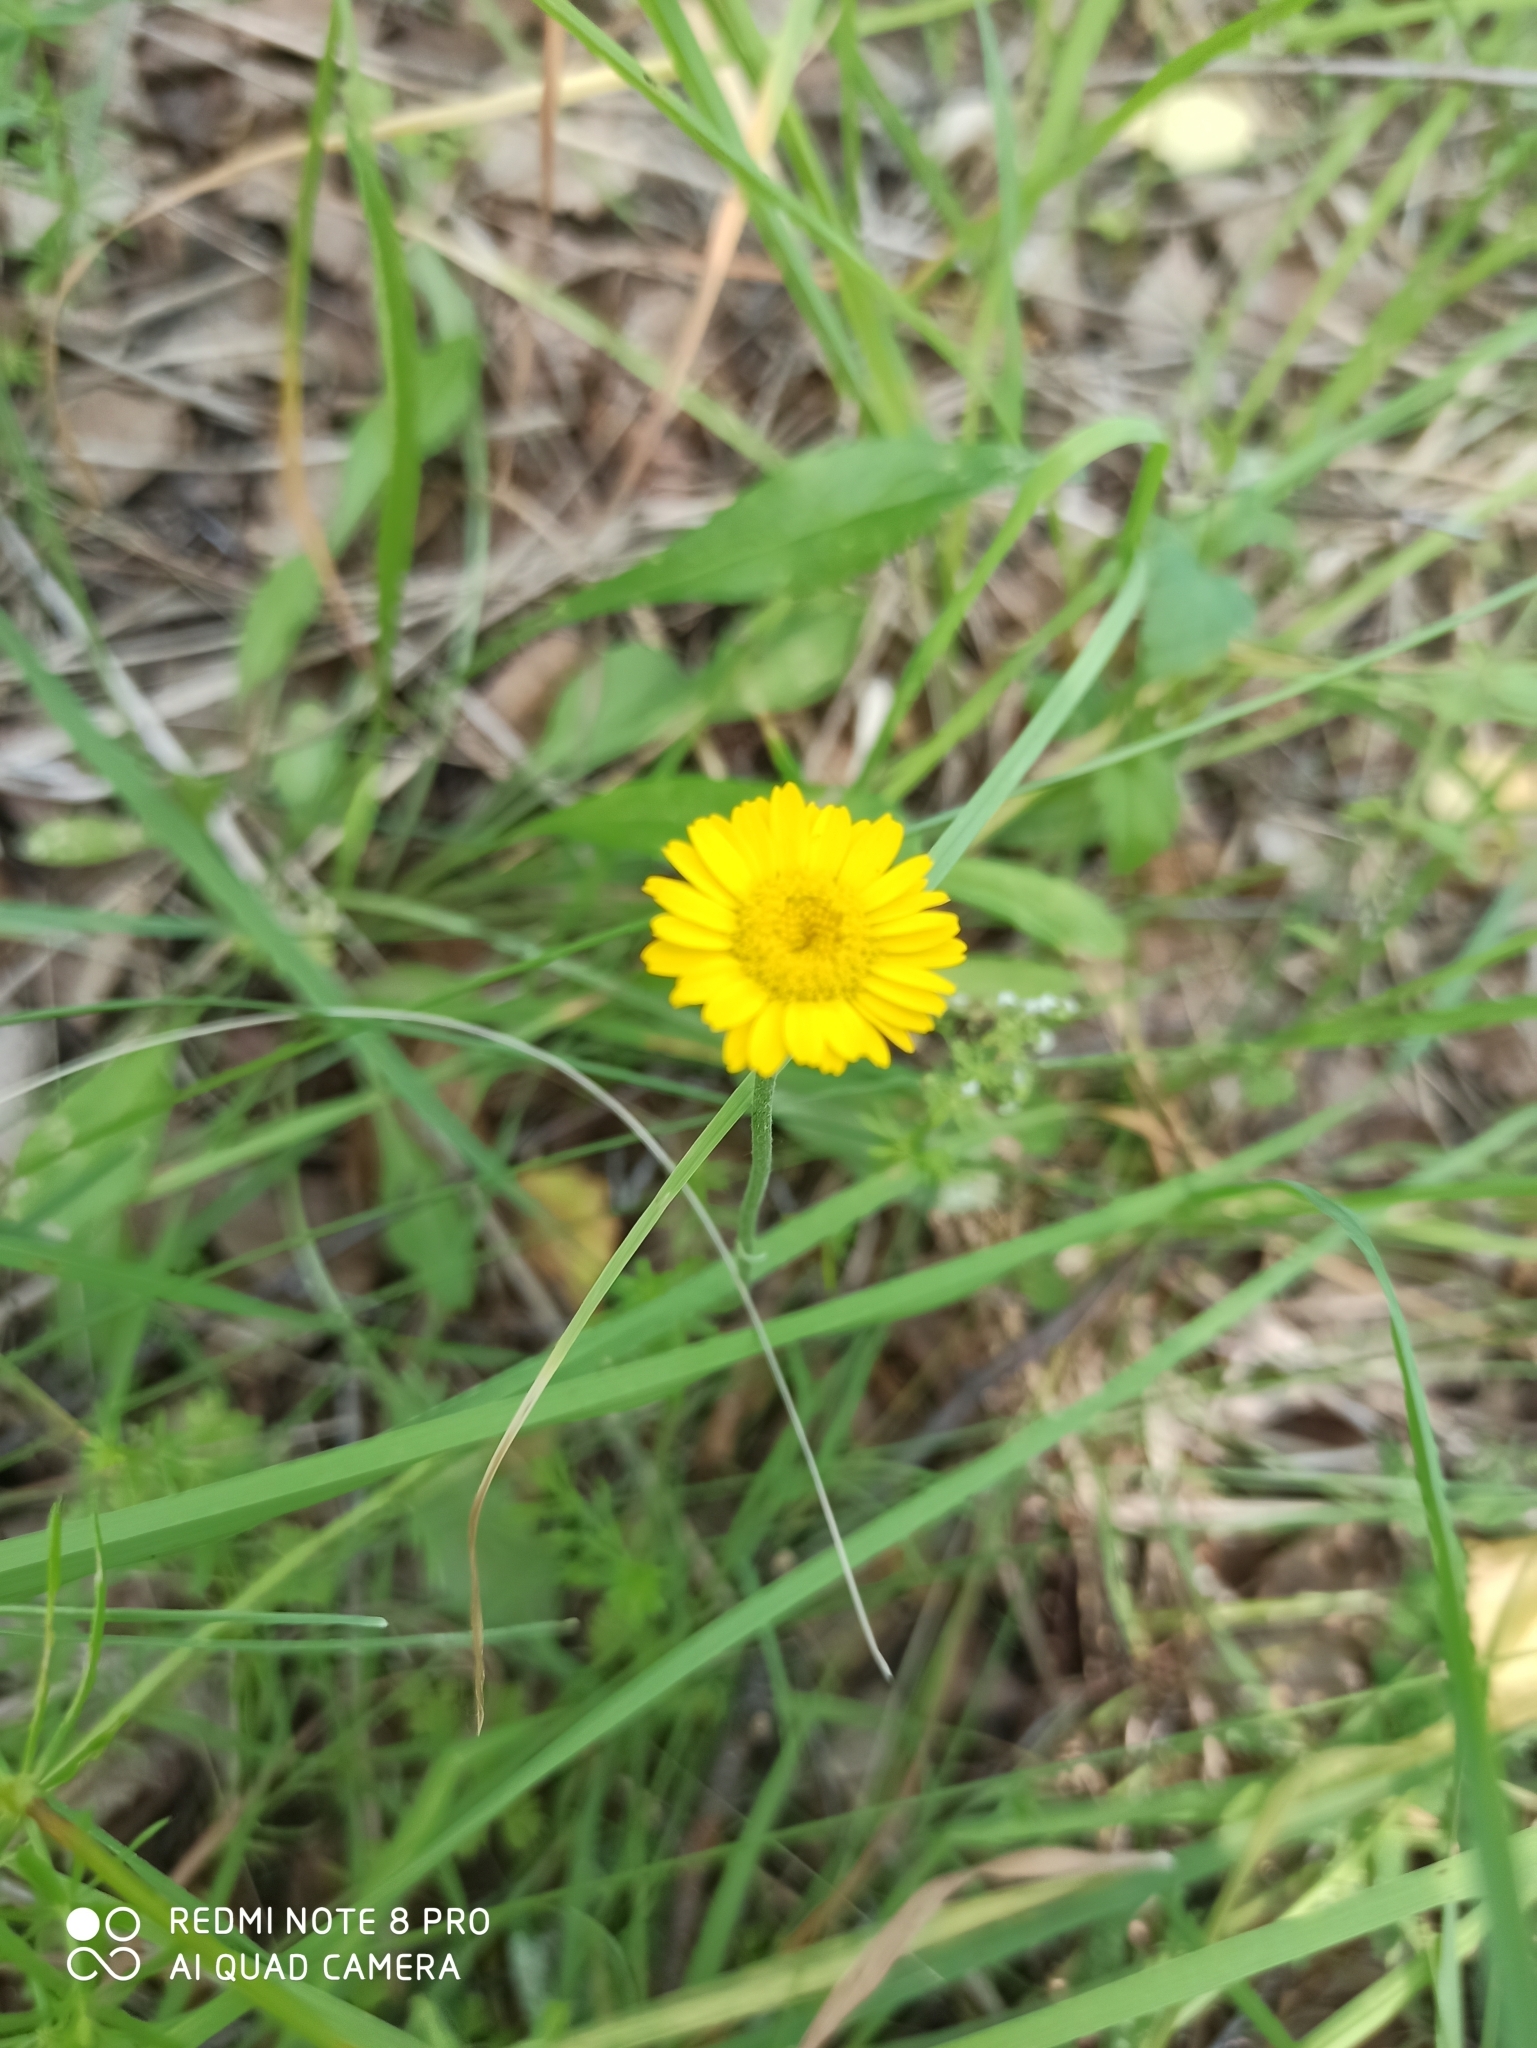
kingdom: Plantae
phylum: Tracheophyta
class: Magnoliopsida
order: Asterales
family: Asteraceae
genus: Cota
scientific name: Cota tinctoria
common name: Golden chamomile
